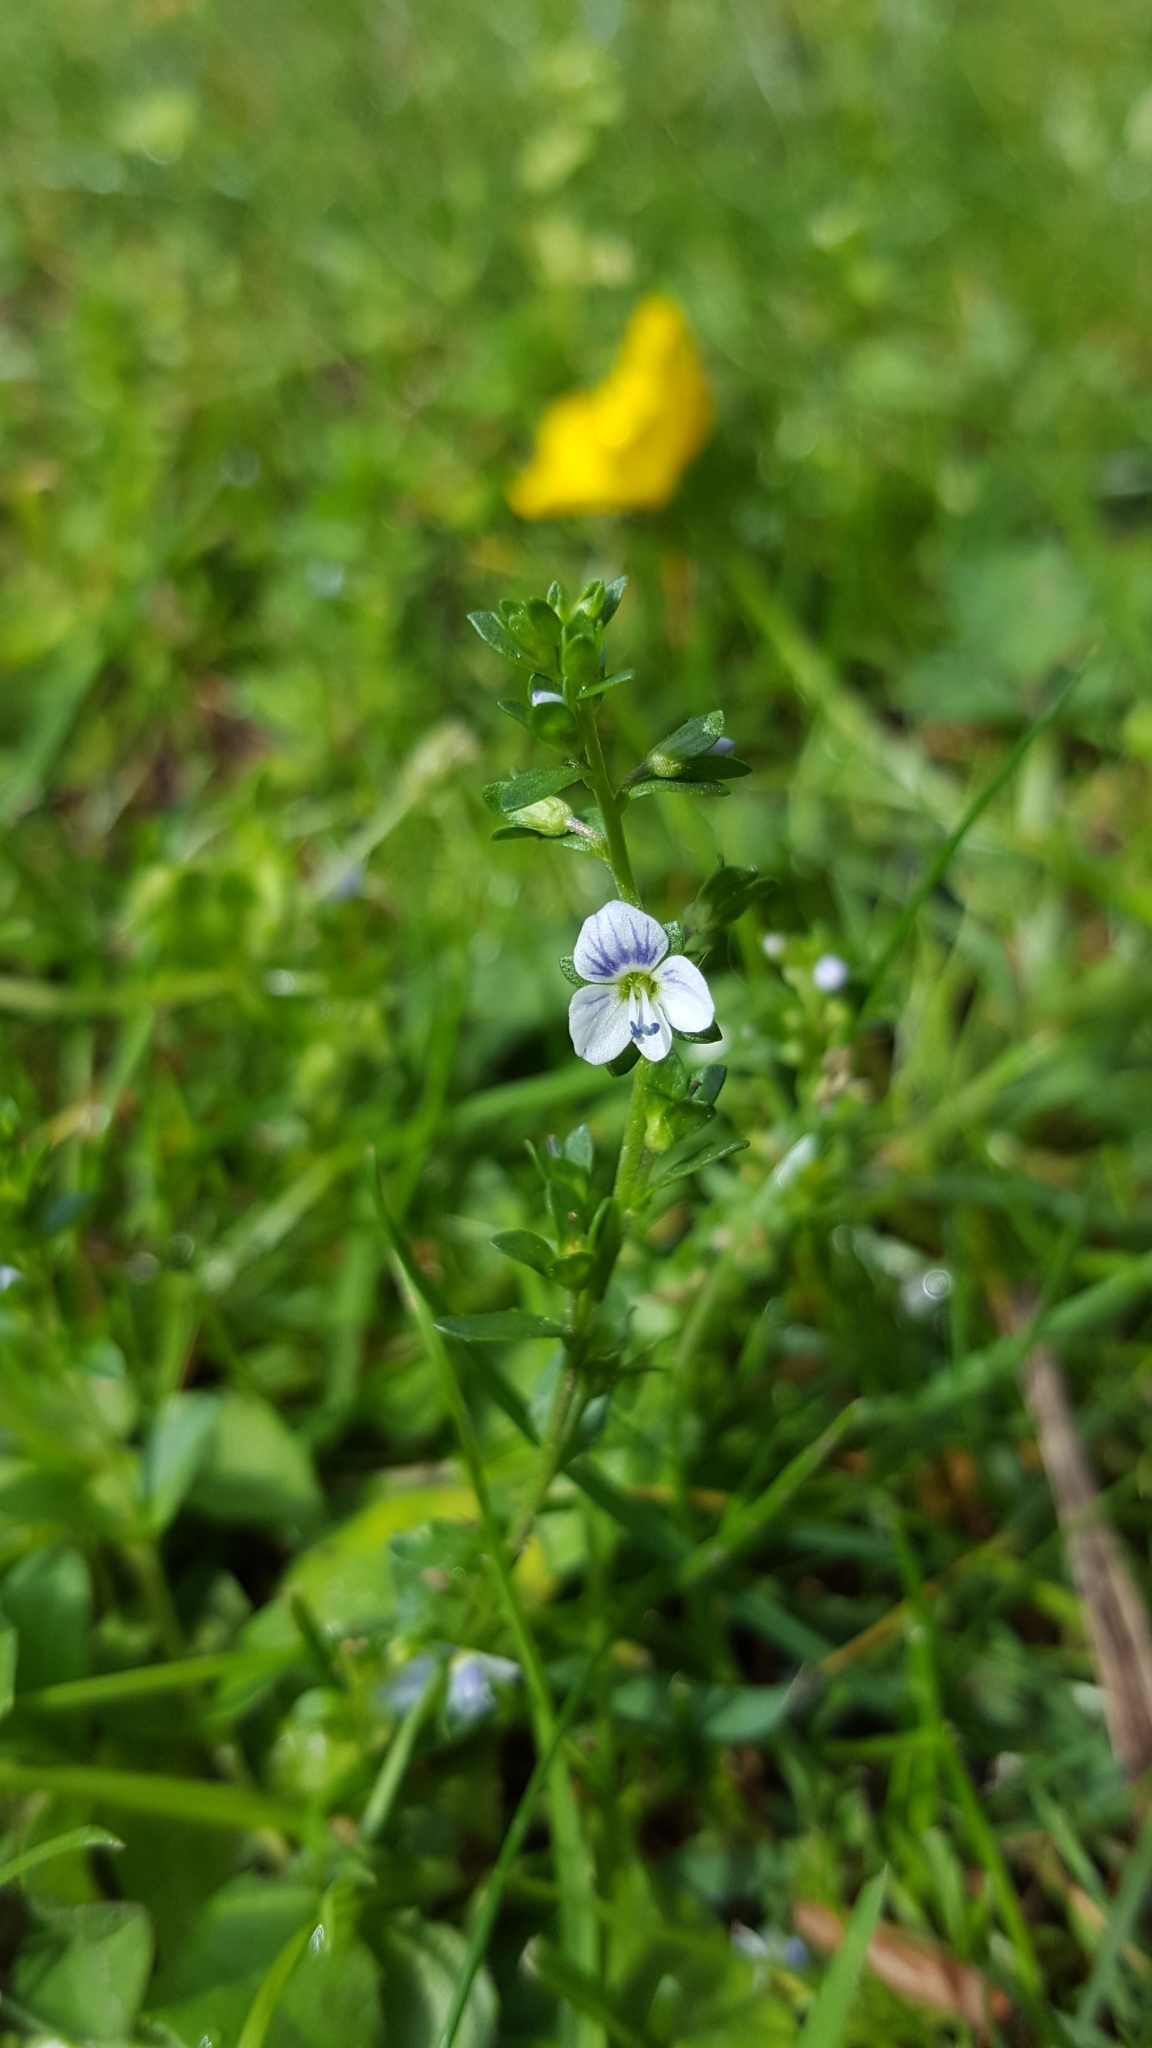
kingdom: Plantae
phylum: Tracheophyta
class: Magnoliopsida
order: Lamiales
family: Plantaginaceae
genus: Veronica
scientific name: Veronica serpyllifolia
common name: Thyme-leaved speedwell
